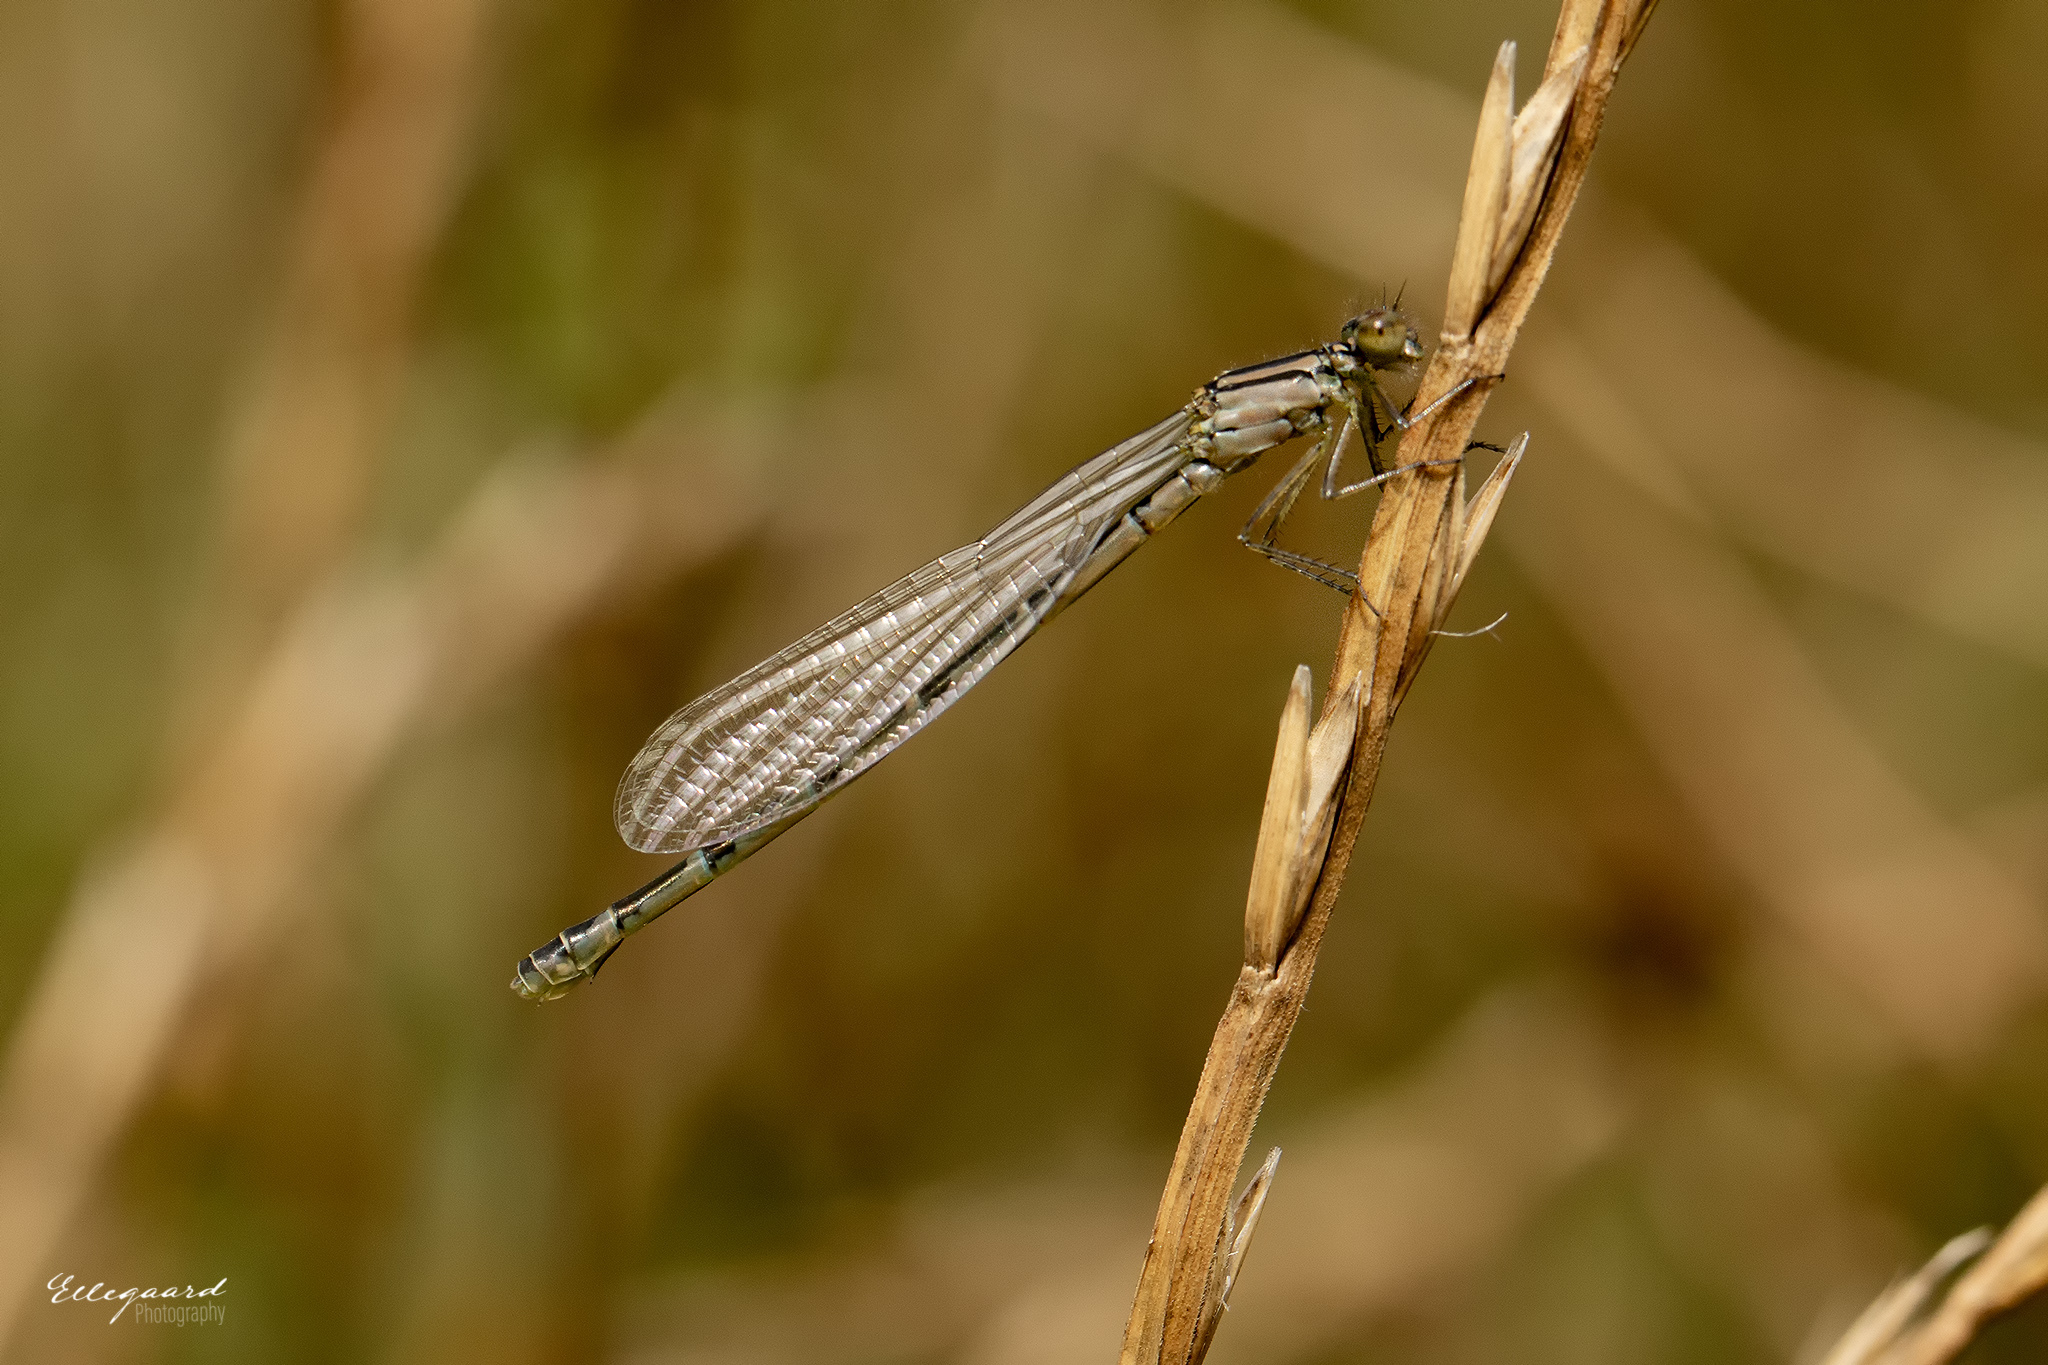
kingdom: Animalia
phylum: Arthropoda
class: Insecta
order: Odonata
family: Coenagrionidae
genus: Enallagma
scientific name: Enallagma cyathigerum
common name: Common blue damselfly
